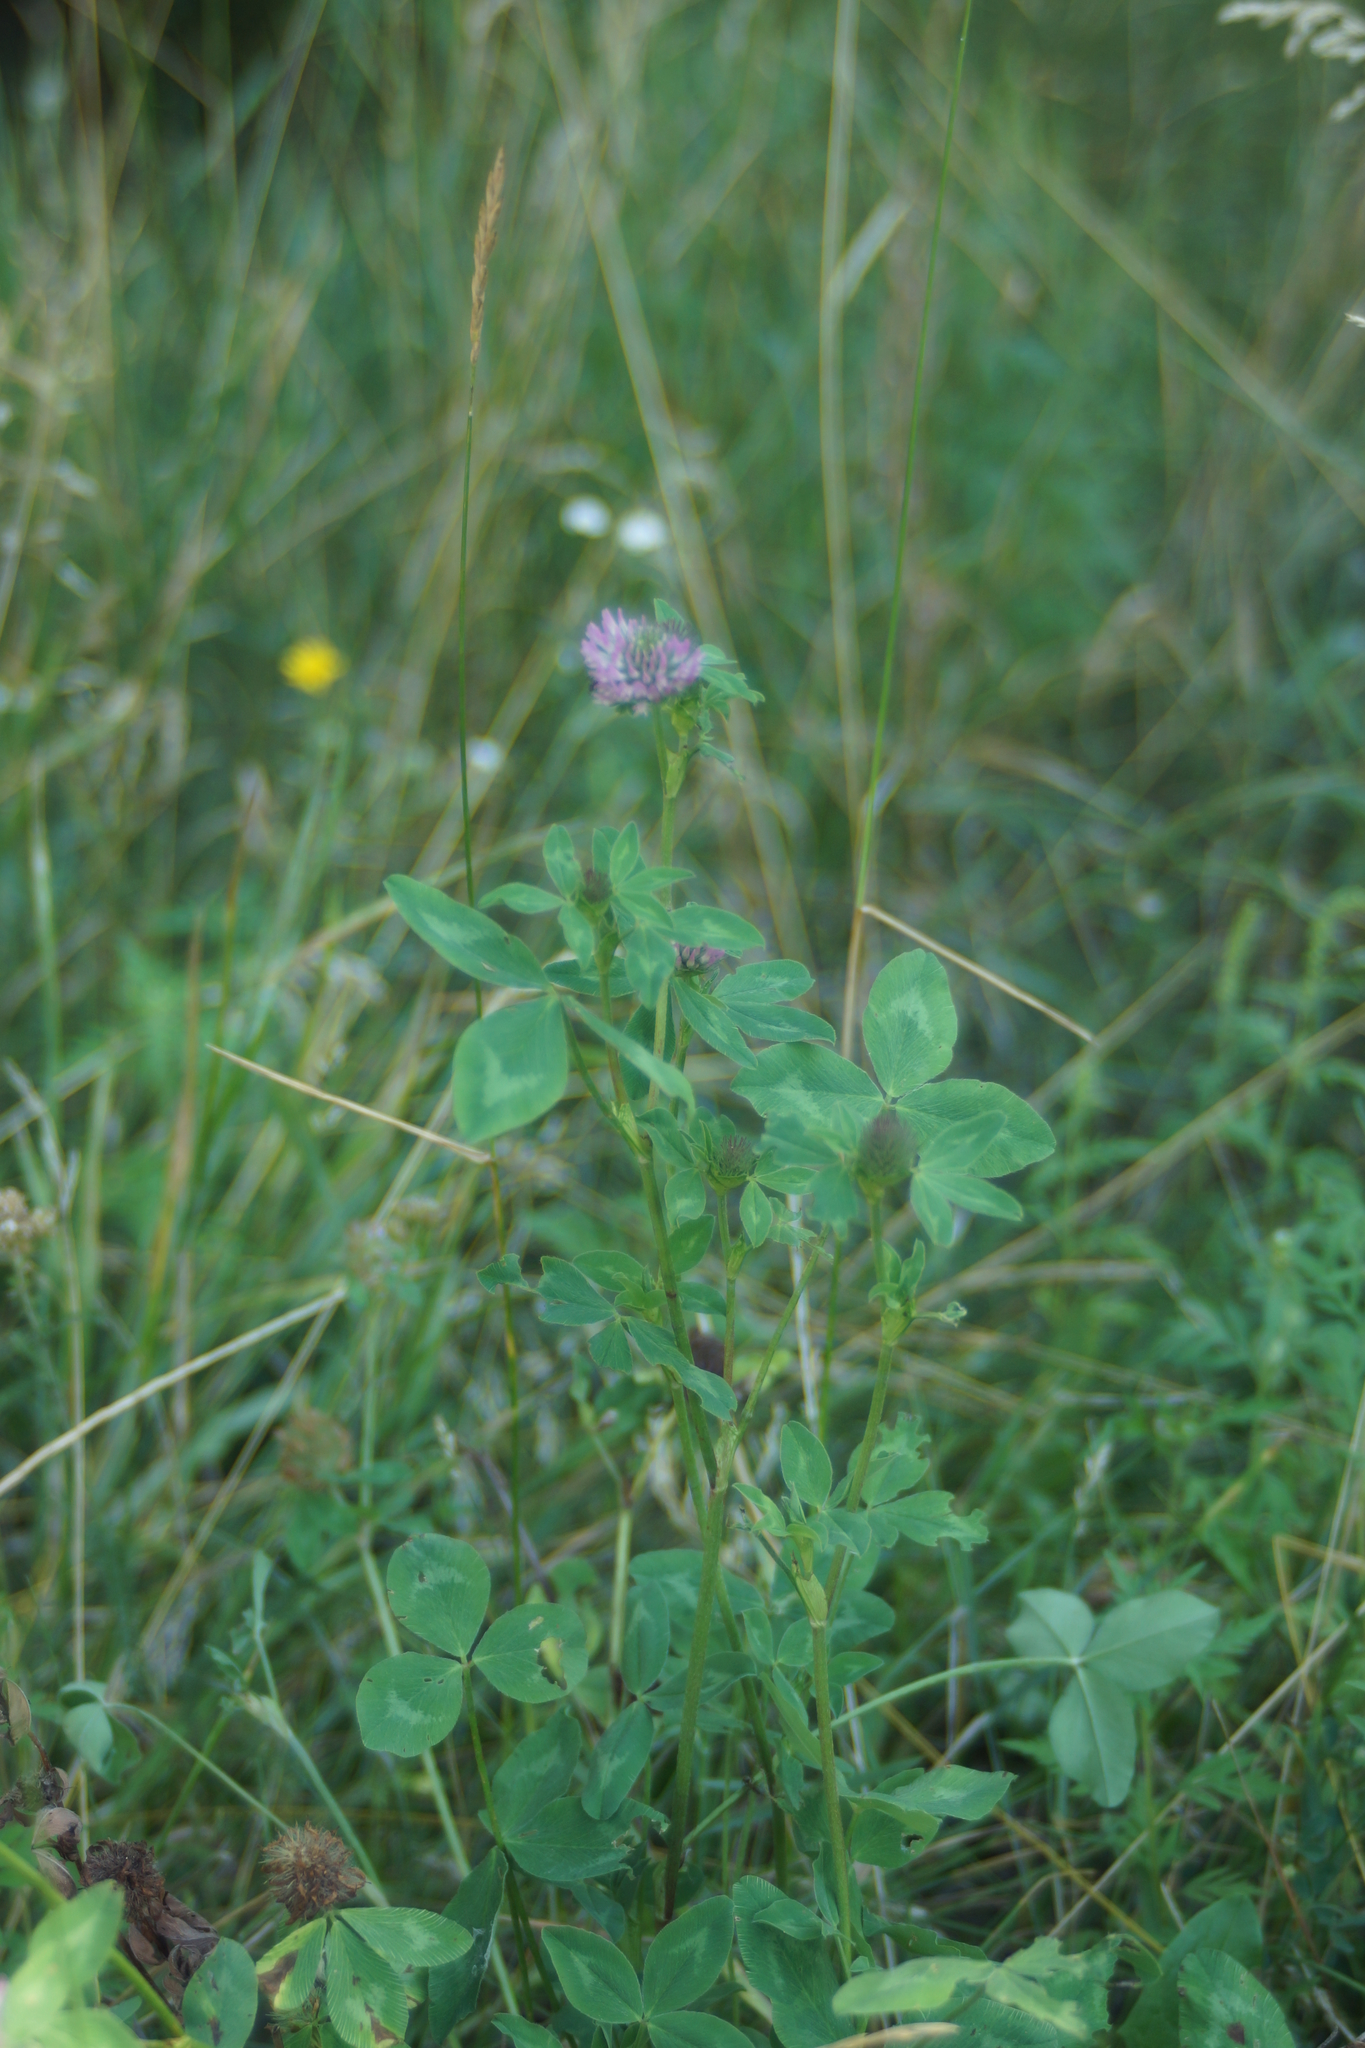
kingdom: Plantae
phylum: Tracheophyta
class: Magnoliopsida
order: Fabales
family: Fabaceae
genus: Trifolium
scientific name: Trifolium pratense
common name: Red clover
